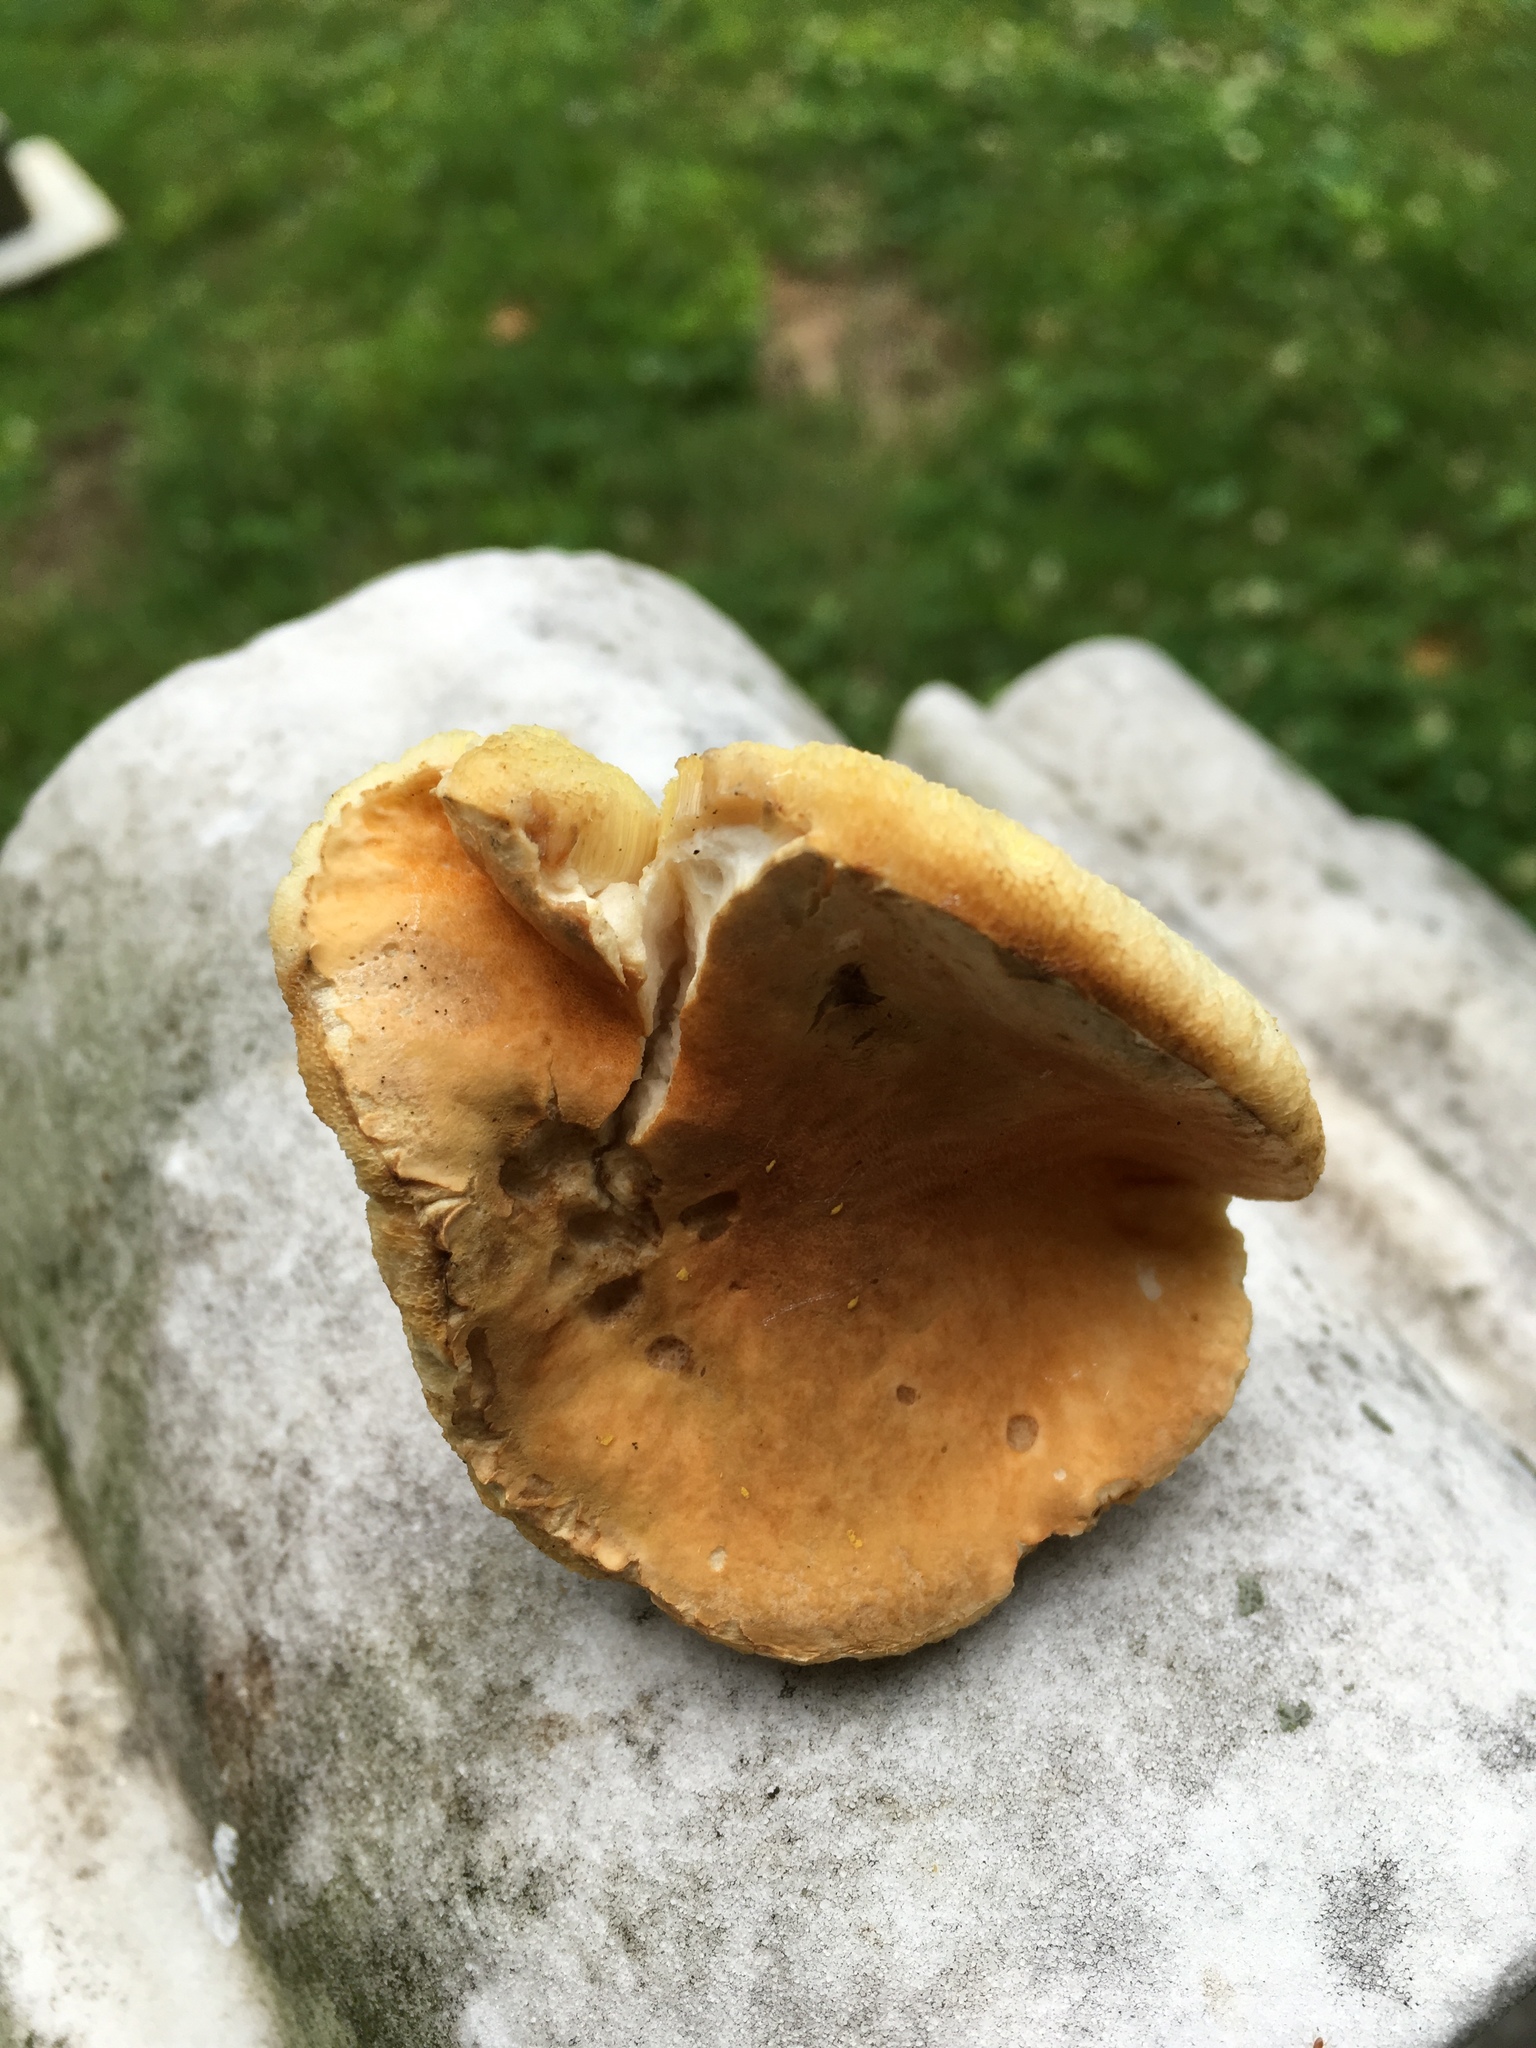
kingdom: Fungi
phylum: Basidiomycota
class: Agaricomycetes
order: Boletales
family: Gyroporaceae
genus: Gyroporus
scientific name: Gyroporus castaneus
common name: Chestnut bolete
